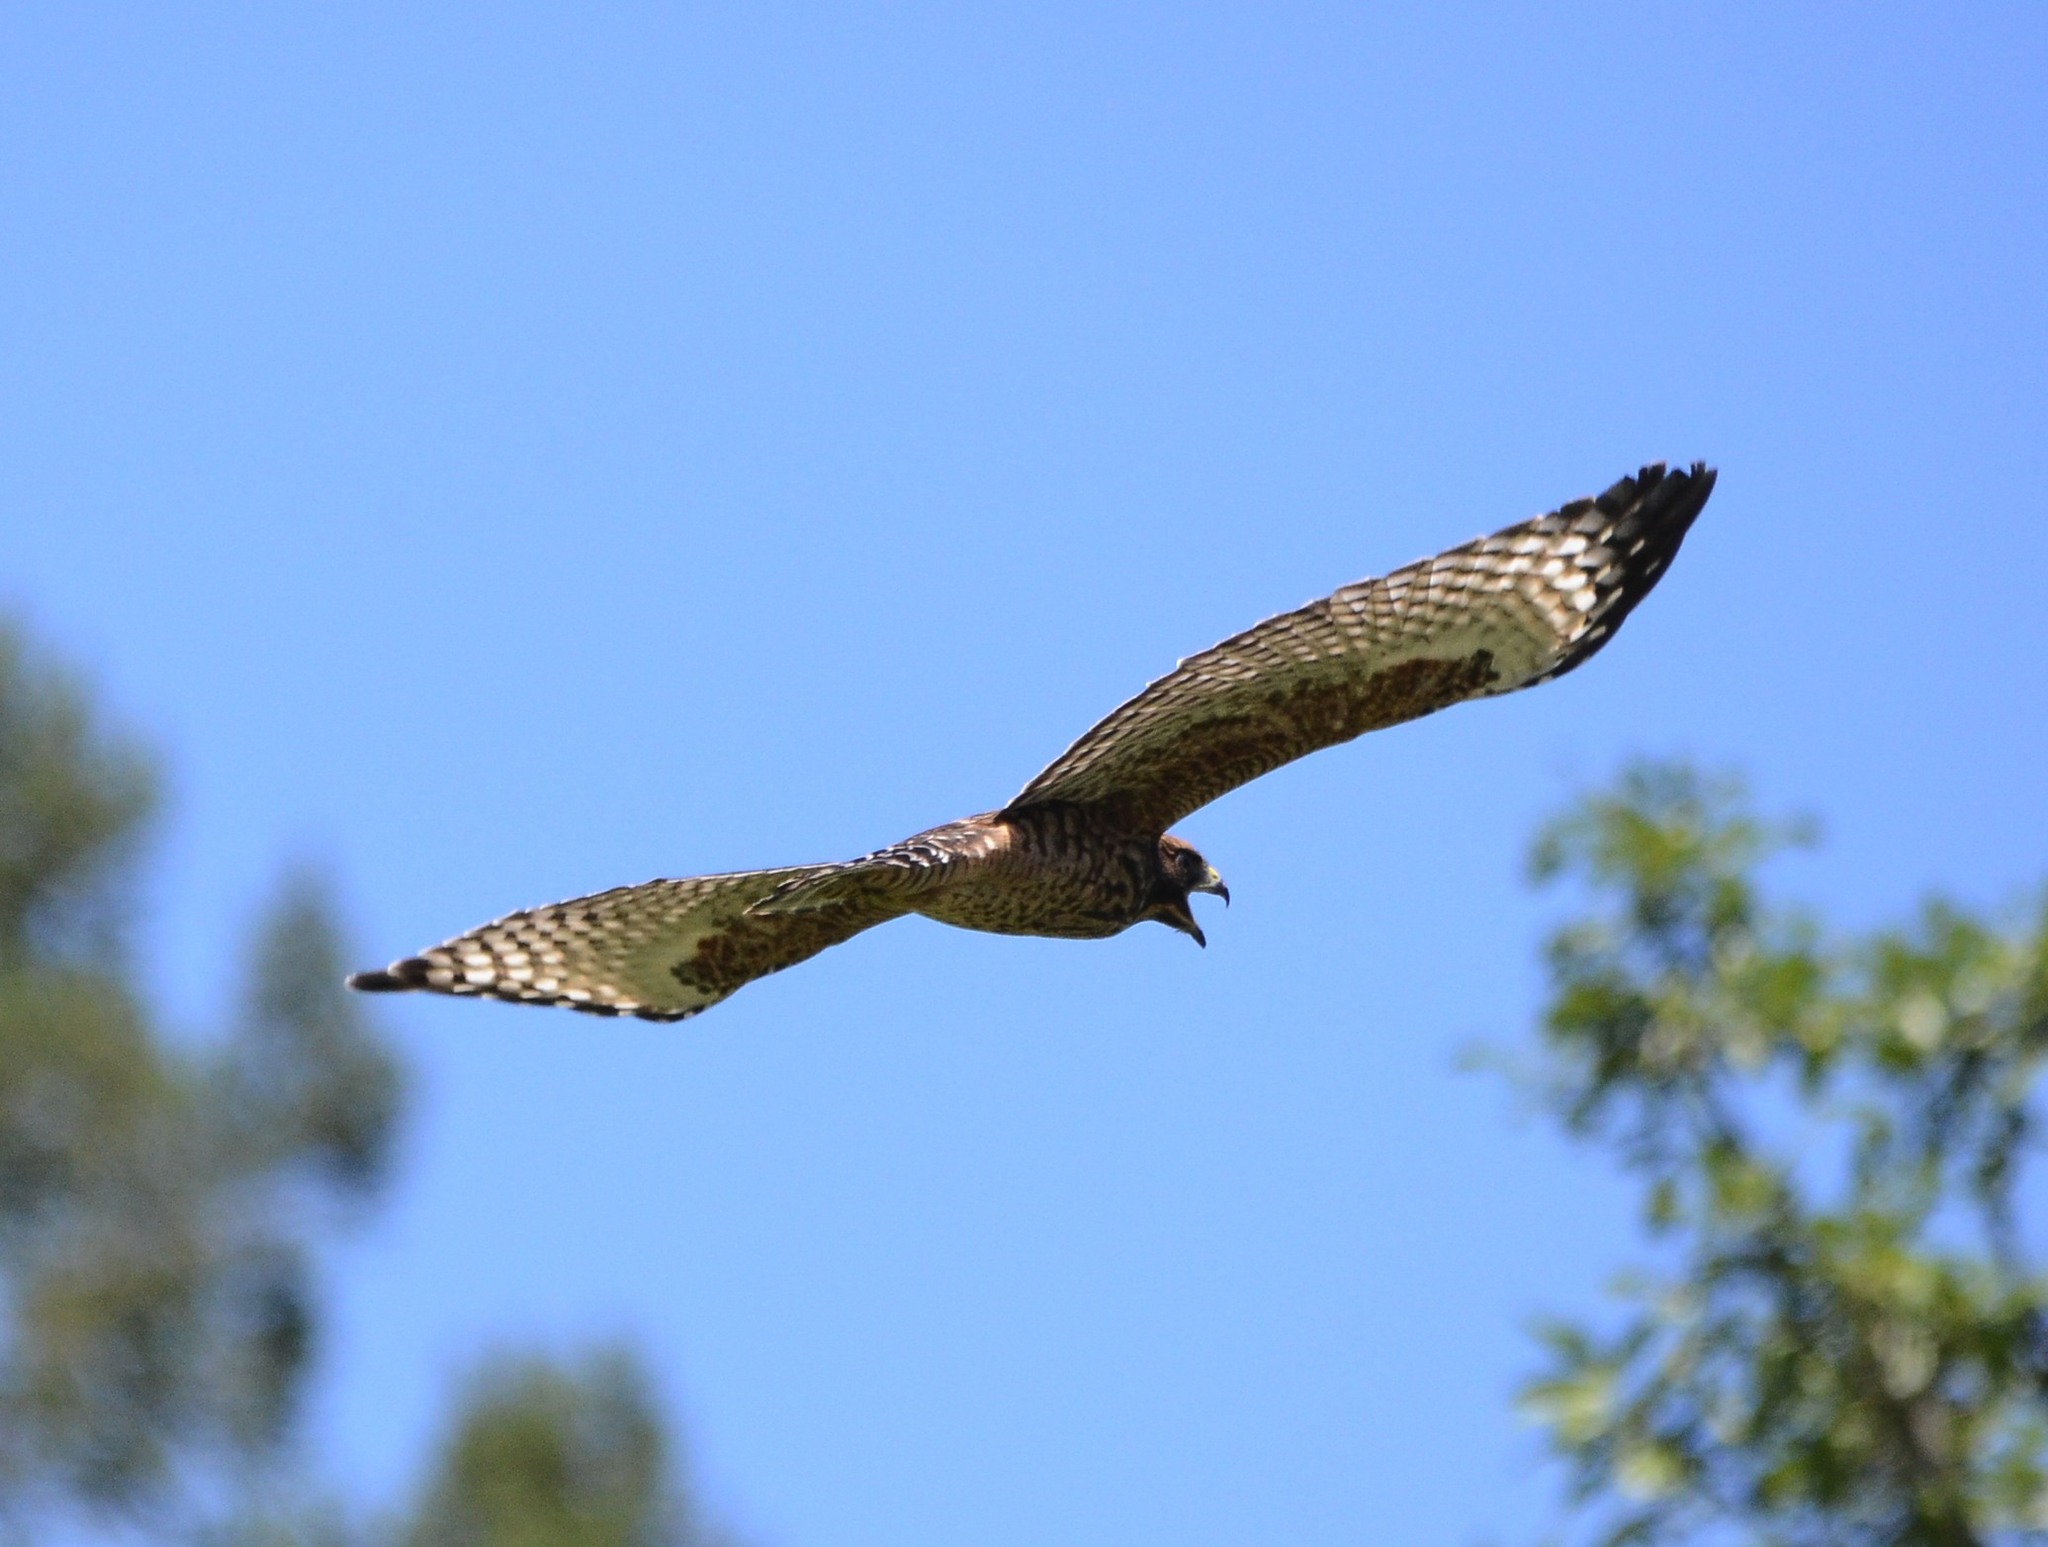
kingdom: Animalia
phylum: Chordata
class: Aves
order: Accipitriformes
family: Accipitridae
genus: Buteo
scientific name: Buteo lineatus
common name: Red-shouldered hawk
